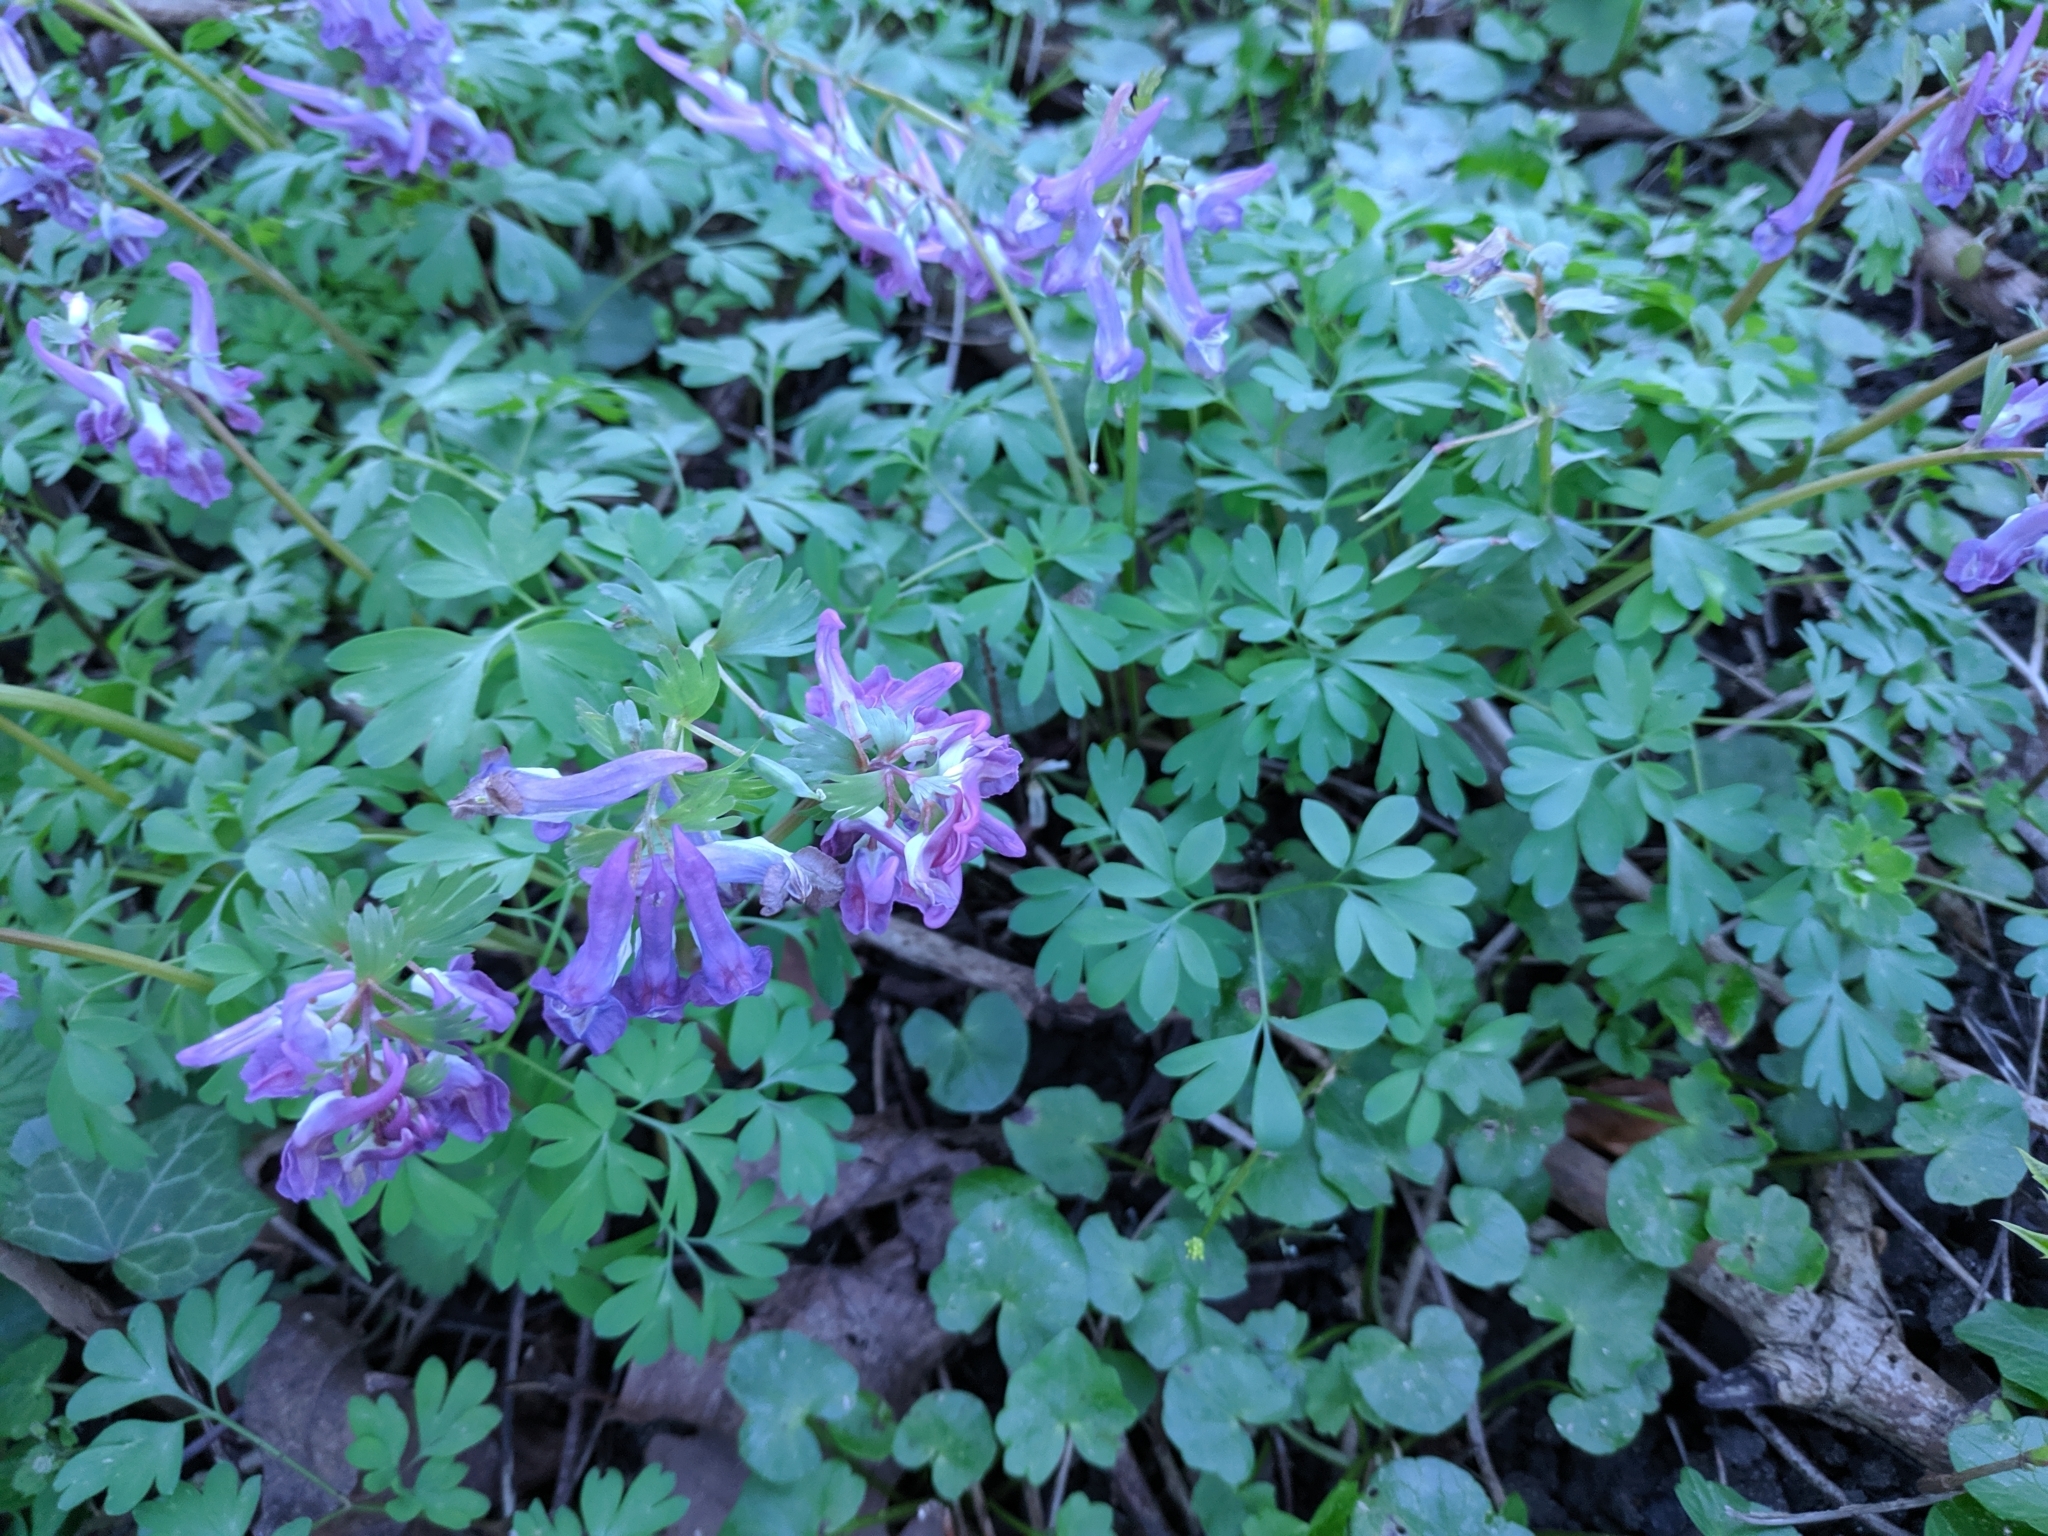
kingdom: Plantae
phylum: Tracheophyta
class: Magnoliopsida
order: Ranunculales
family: Papaveraceae
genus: Corydalis
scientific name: Corydalis solida
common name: Bird-in-a-bush
